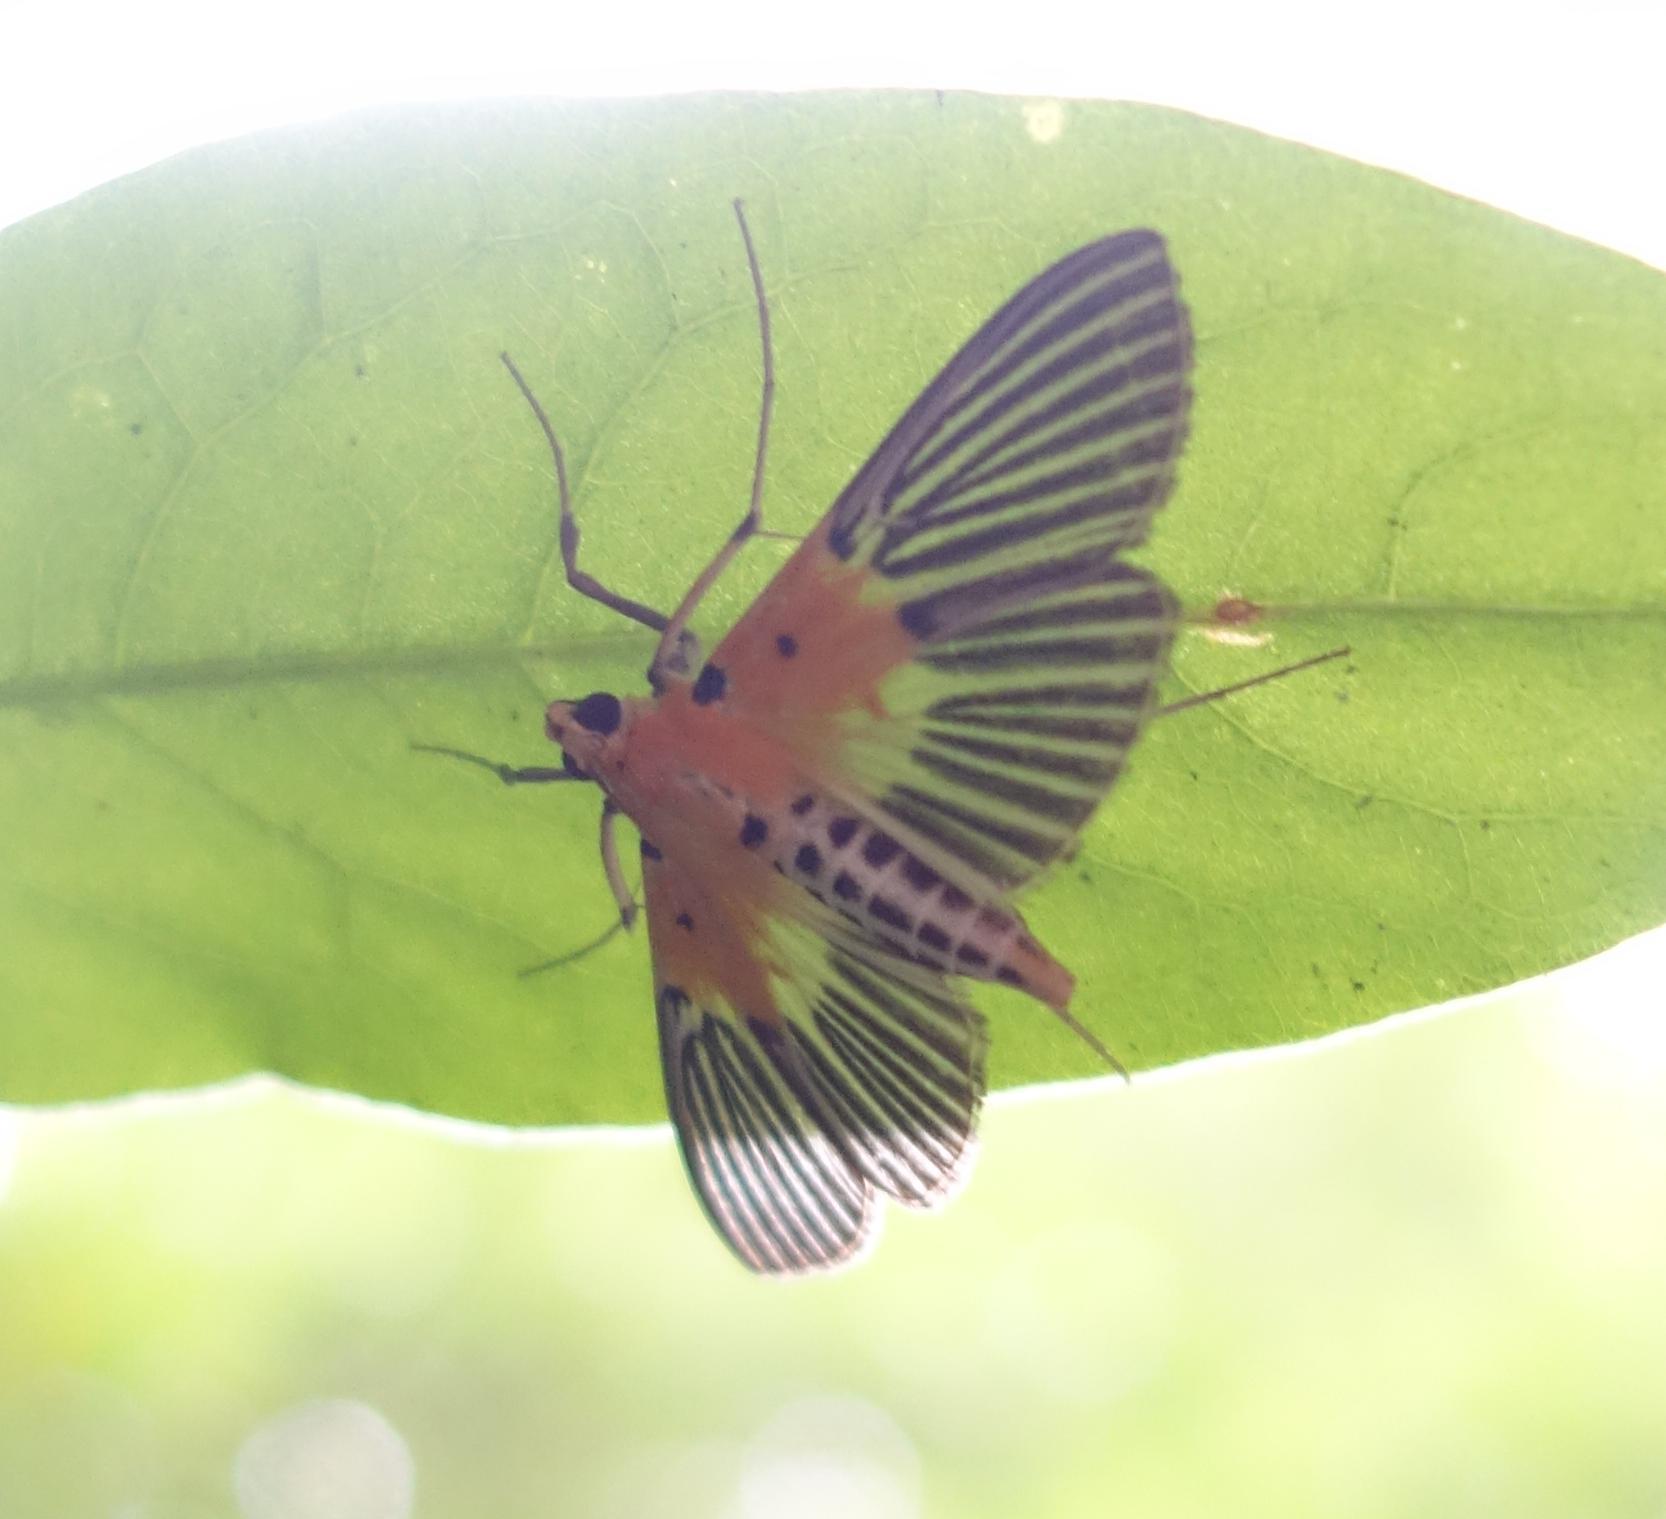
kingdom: Animalia
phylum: Arthropoda
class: Insecta
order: Lepidoptera
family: Crambidae
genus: Nevrina
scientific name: Nevrina procopia
